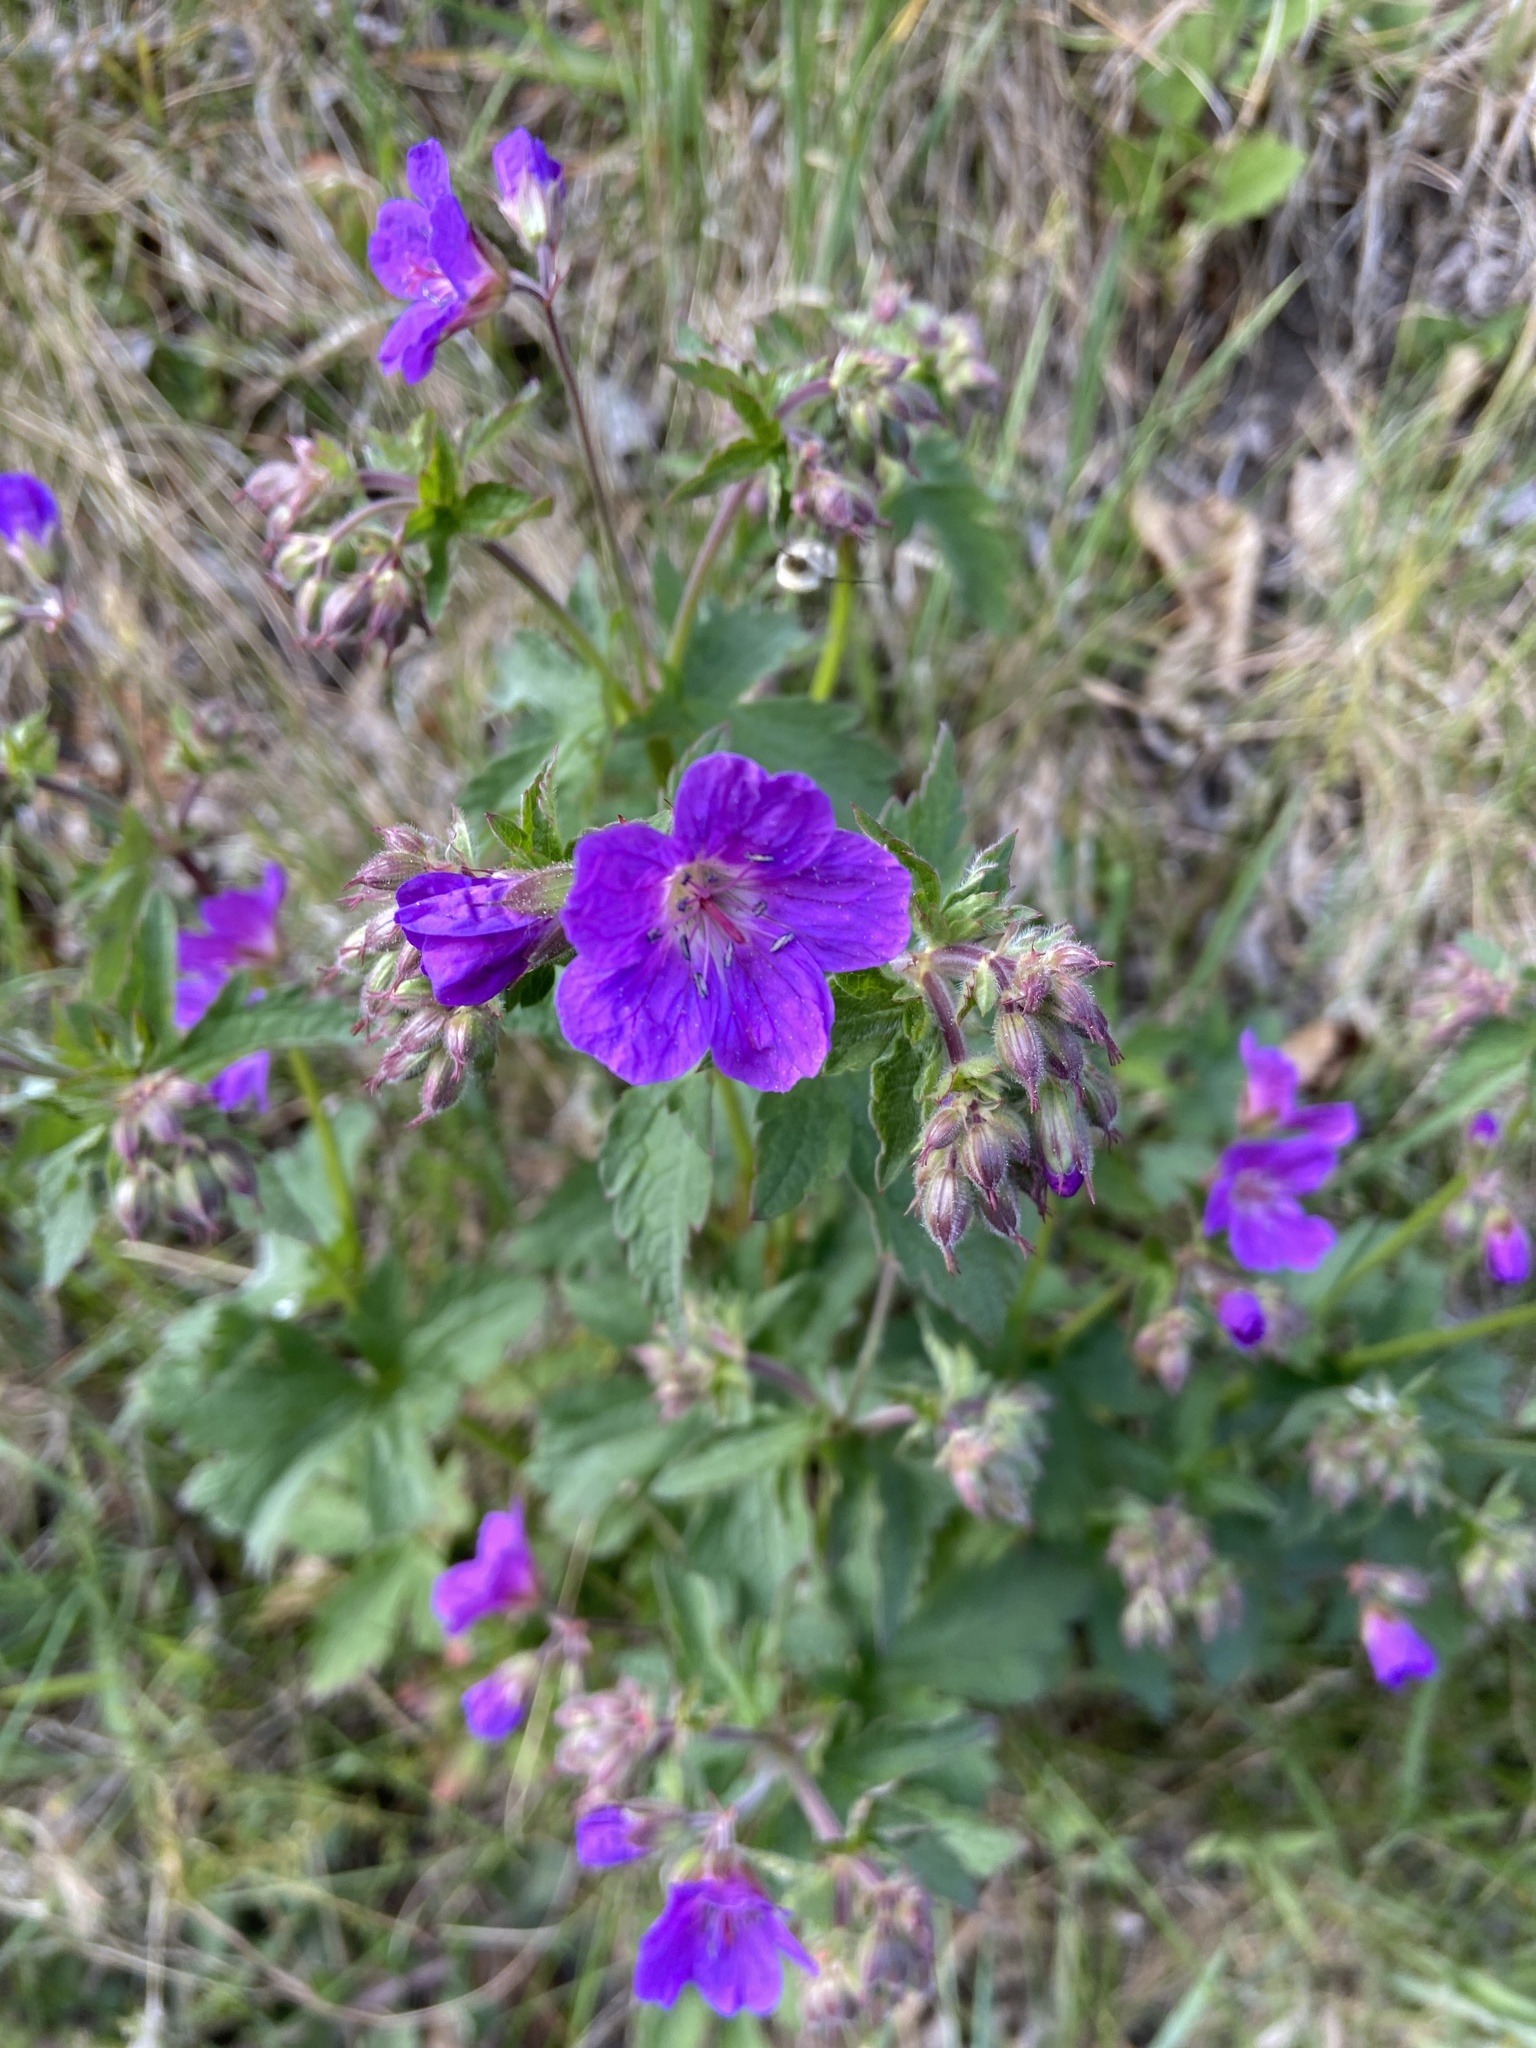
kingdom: Plantae
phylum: Tracheophyta
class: Magnoliopsida
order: Geraniales
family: Geraniaceae
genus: Geranium
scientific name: Geranium sylvaticum
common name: Wood crane's-bill
